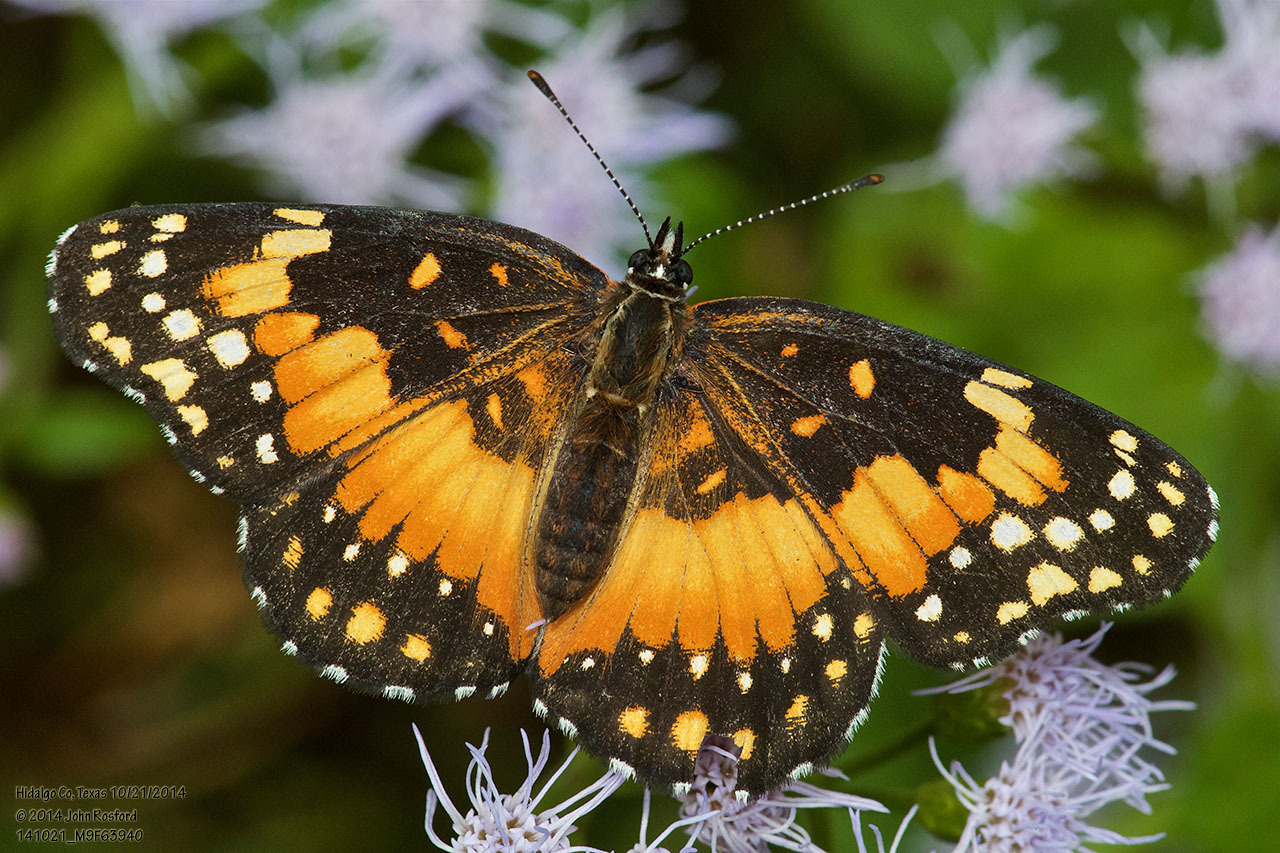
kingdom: Animalia
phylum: Arthropoda
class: Insecta
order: Lepidoptera
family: Nymphalidae
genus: Chlosyne
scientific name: Chlosyne lacinia
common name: Bordered patch
